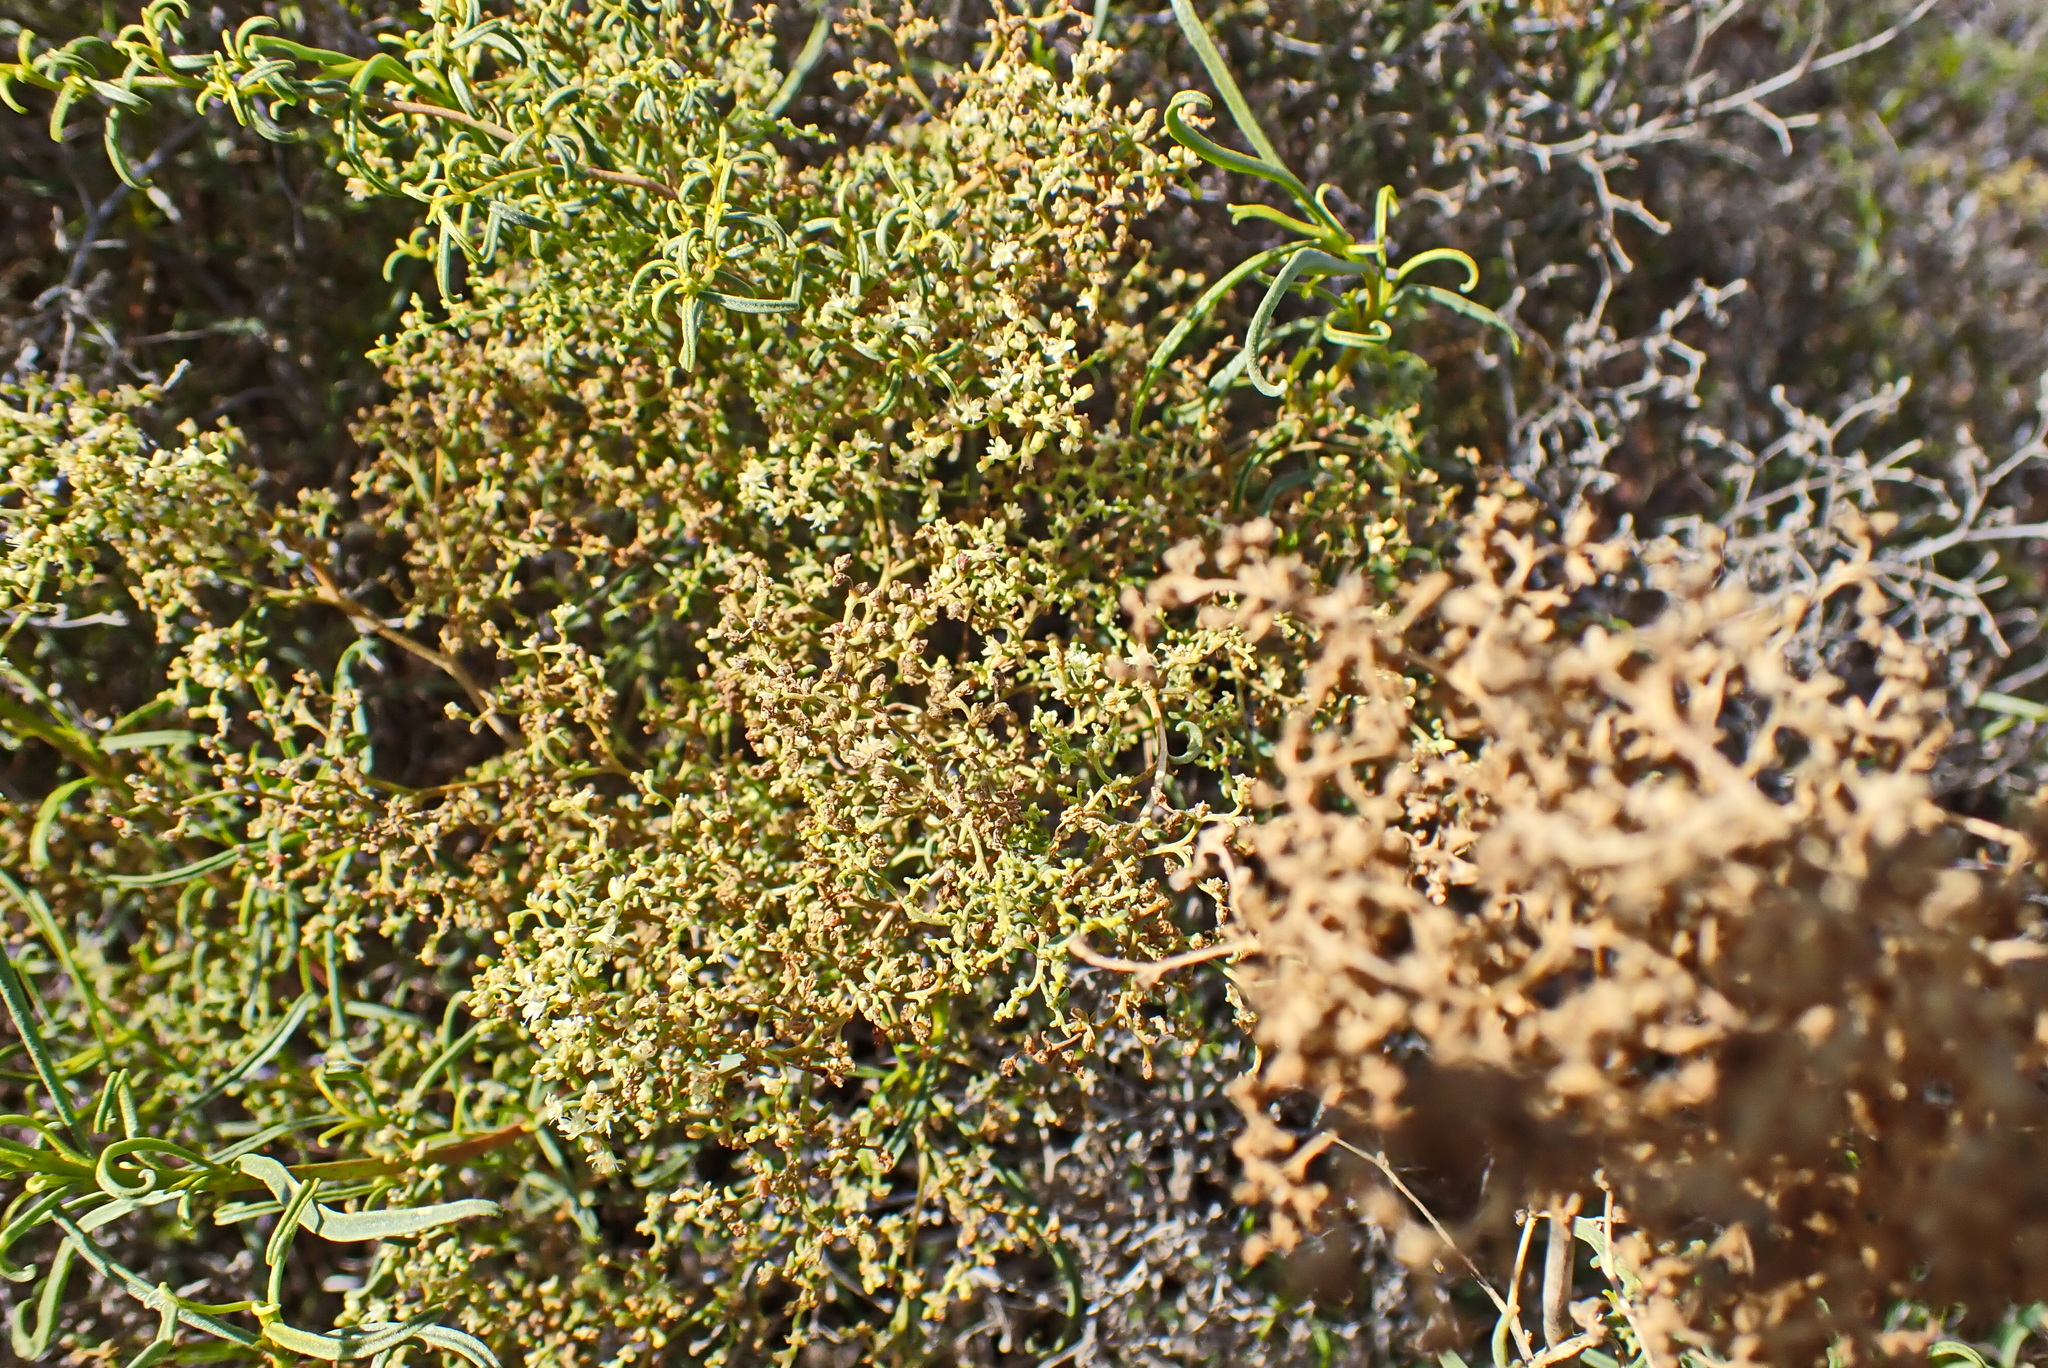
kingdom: Plantae
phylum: Tracheophyta
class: Magnoliopsida
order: Caryophyllales
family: Aizoaceae
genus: Aizoon
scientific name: Aizoon africanum
